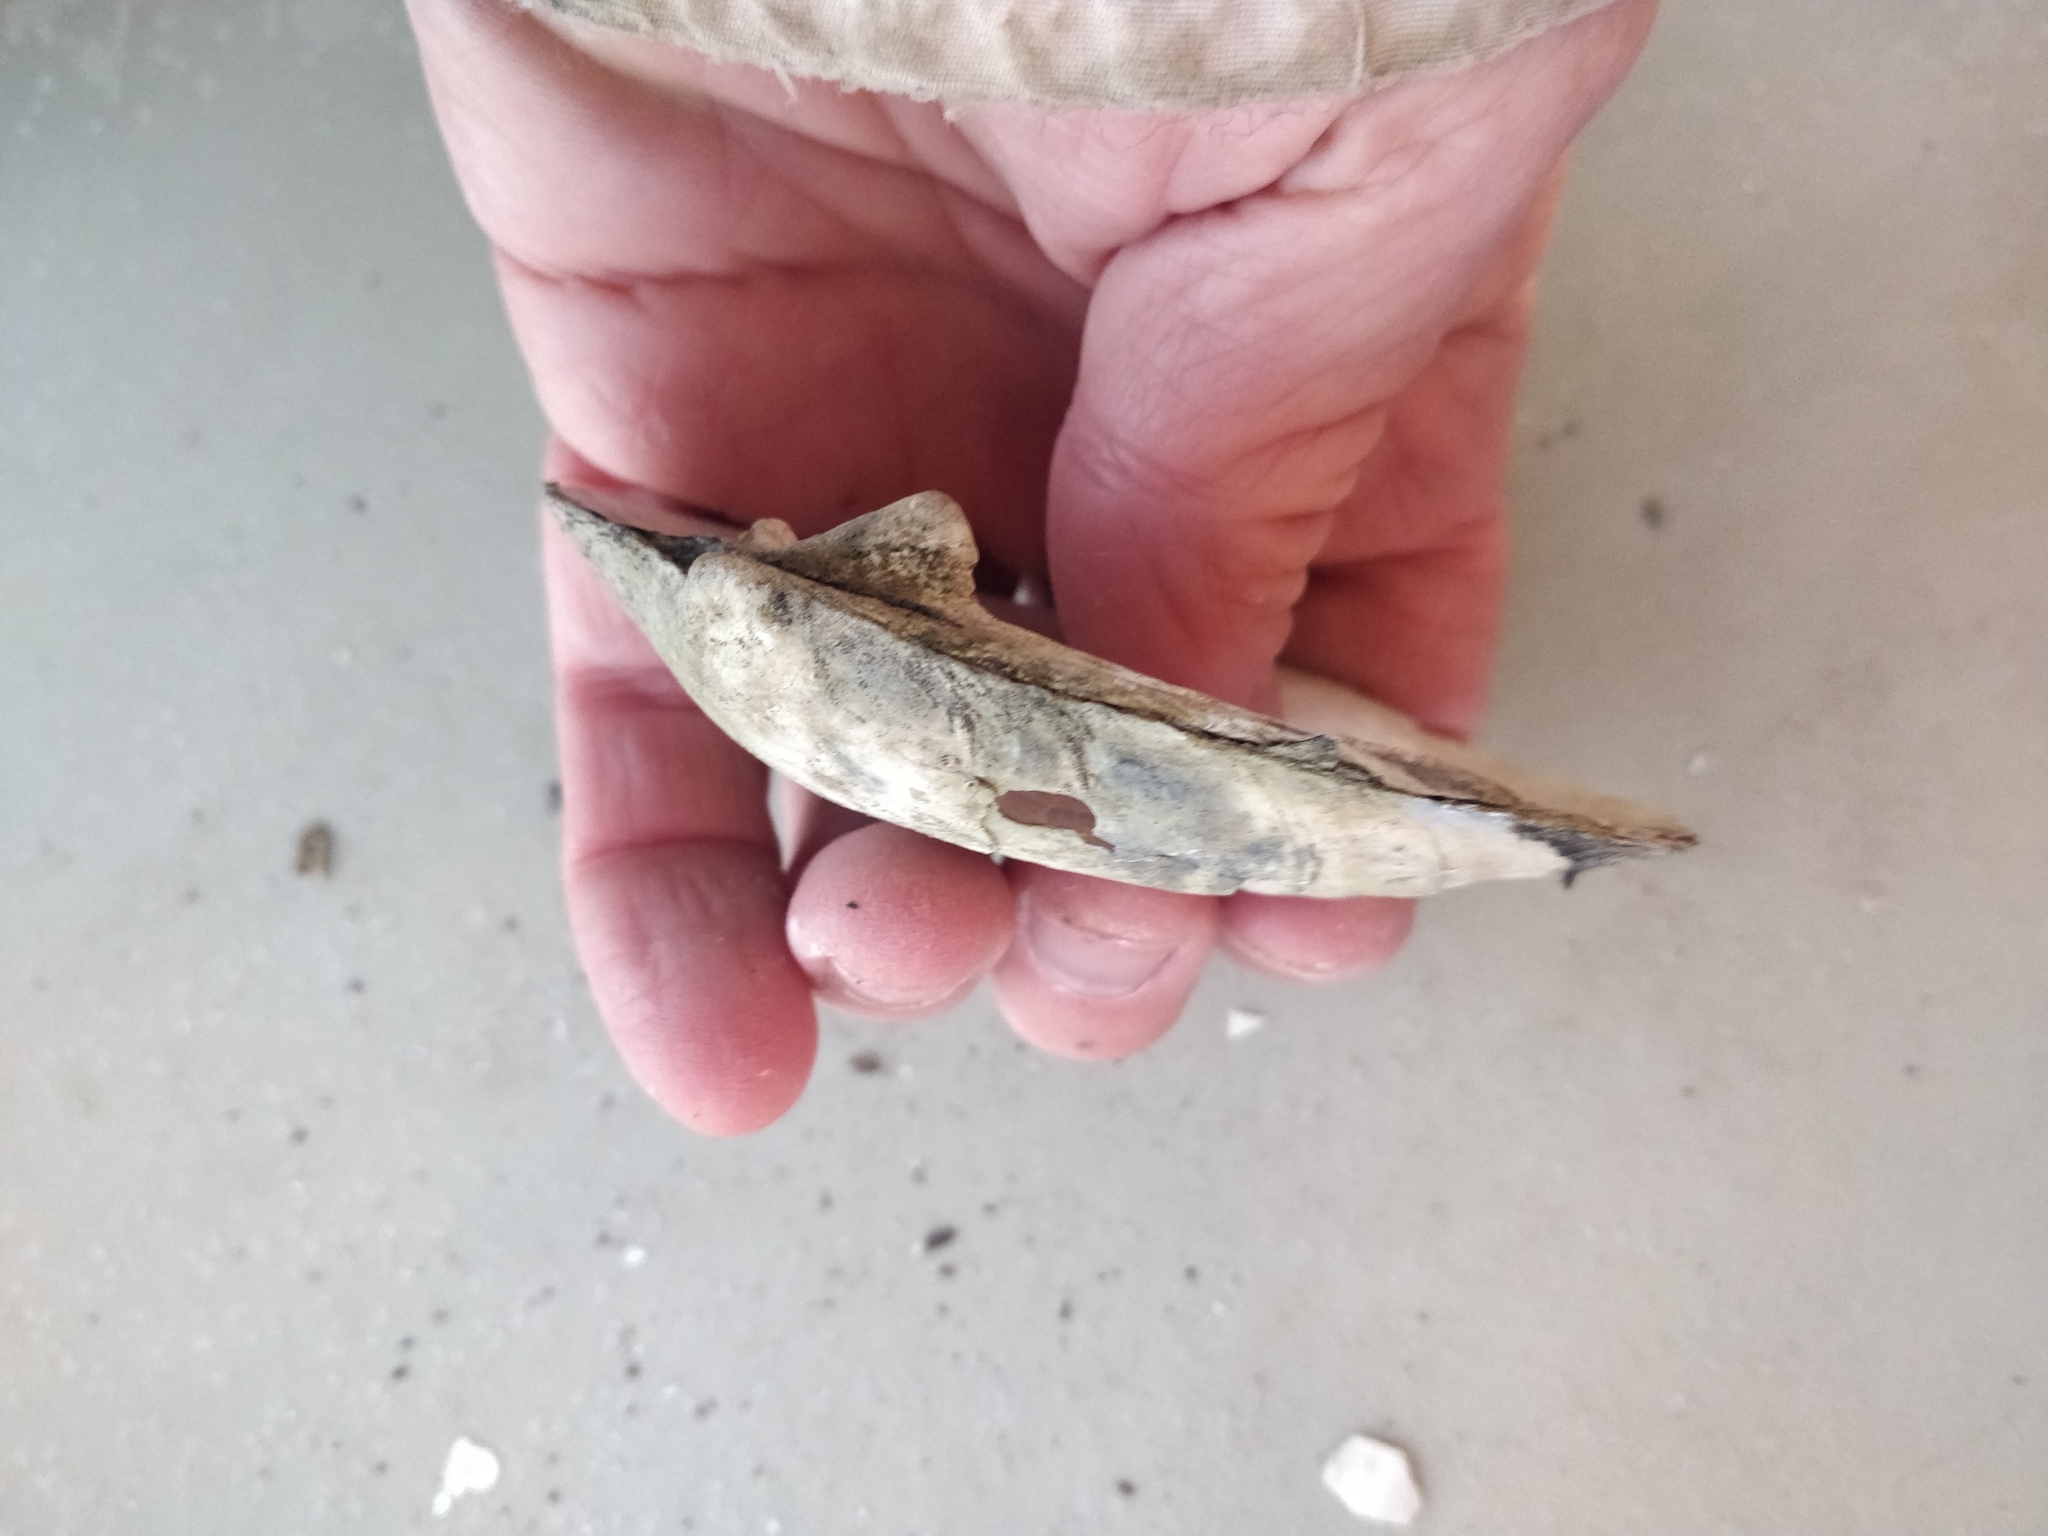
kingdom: Animalia
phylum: Mollusca
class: Bivalvia
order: Unionida
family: Unionidae
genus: Amblema
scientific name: Amblema plicata
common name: Threeridge
